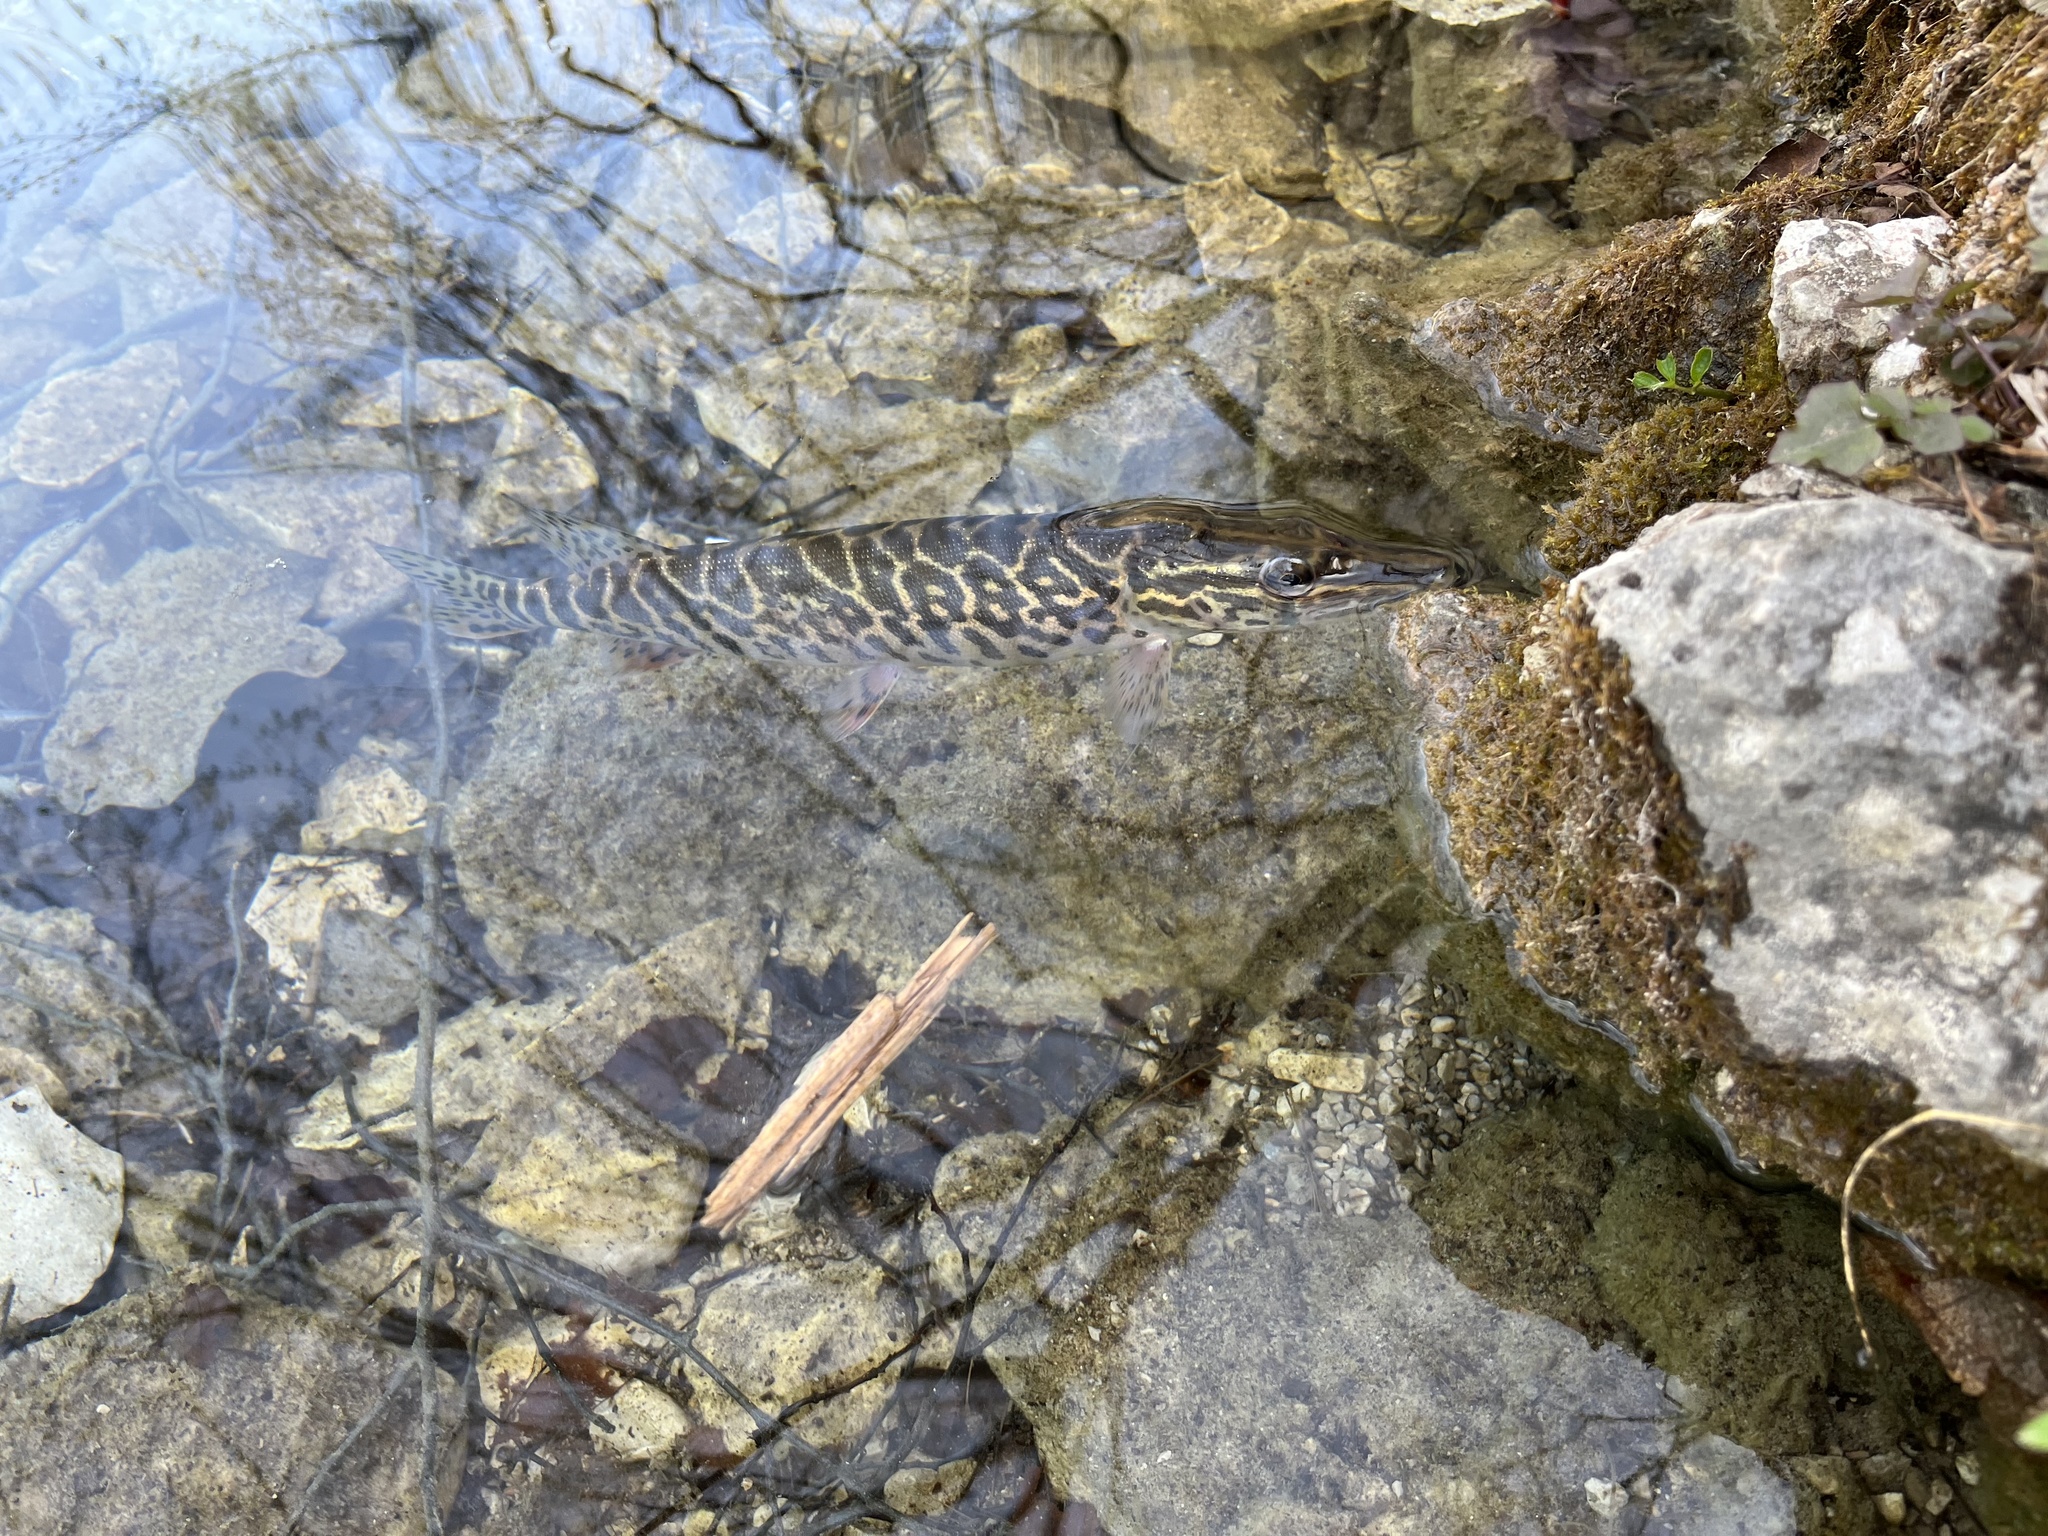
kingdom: Animalia
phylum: Chordata
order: Esociformes
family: Esocidae
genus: Esox
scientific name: Esox lucius
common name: Northern pike
